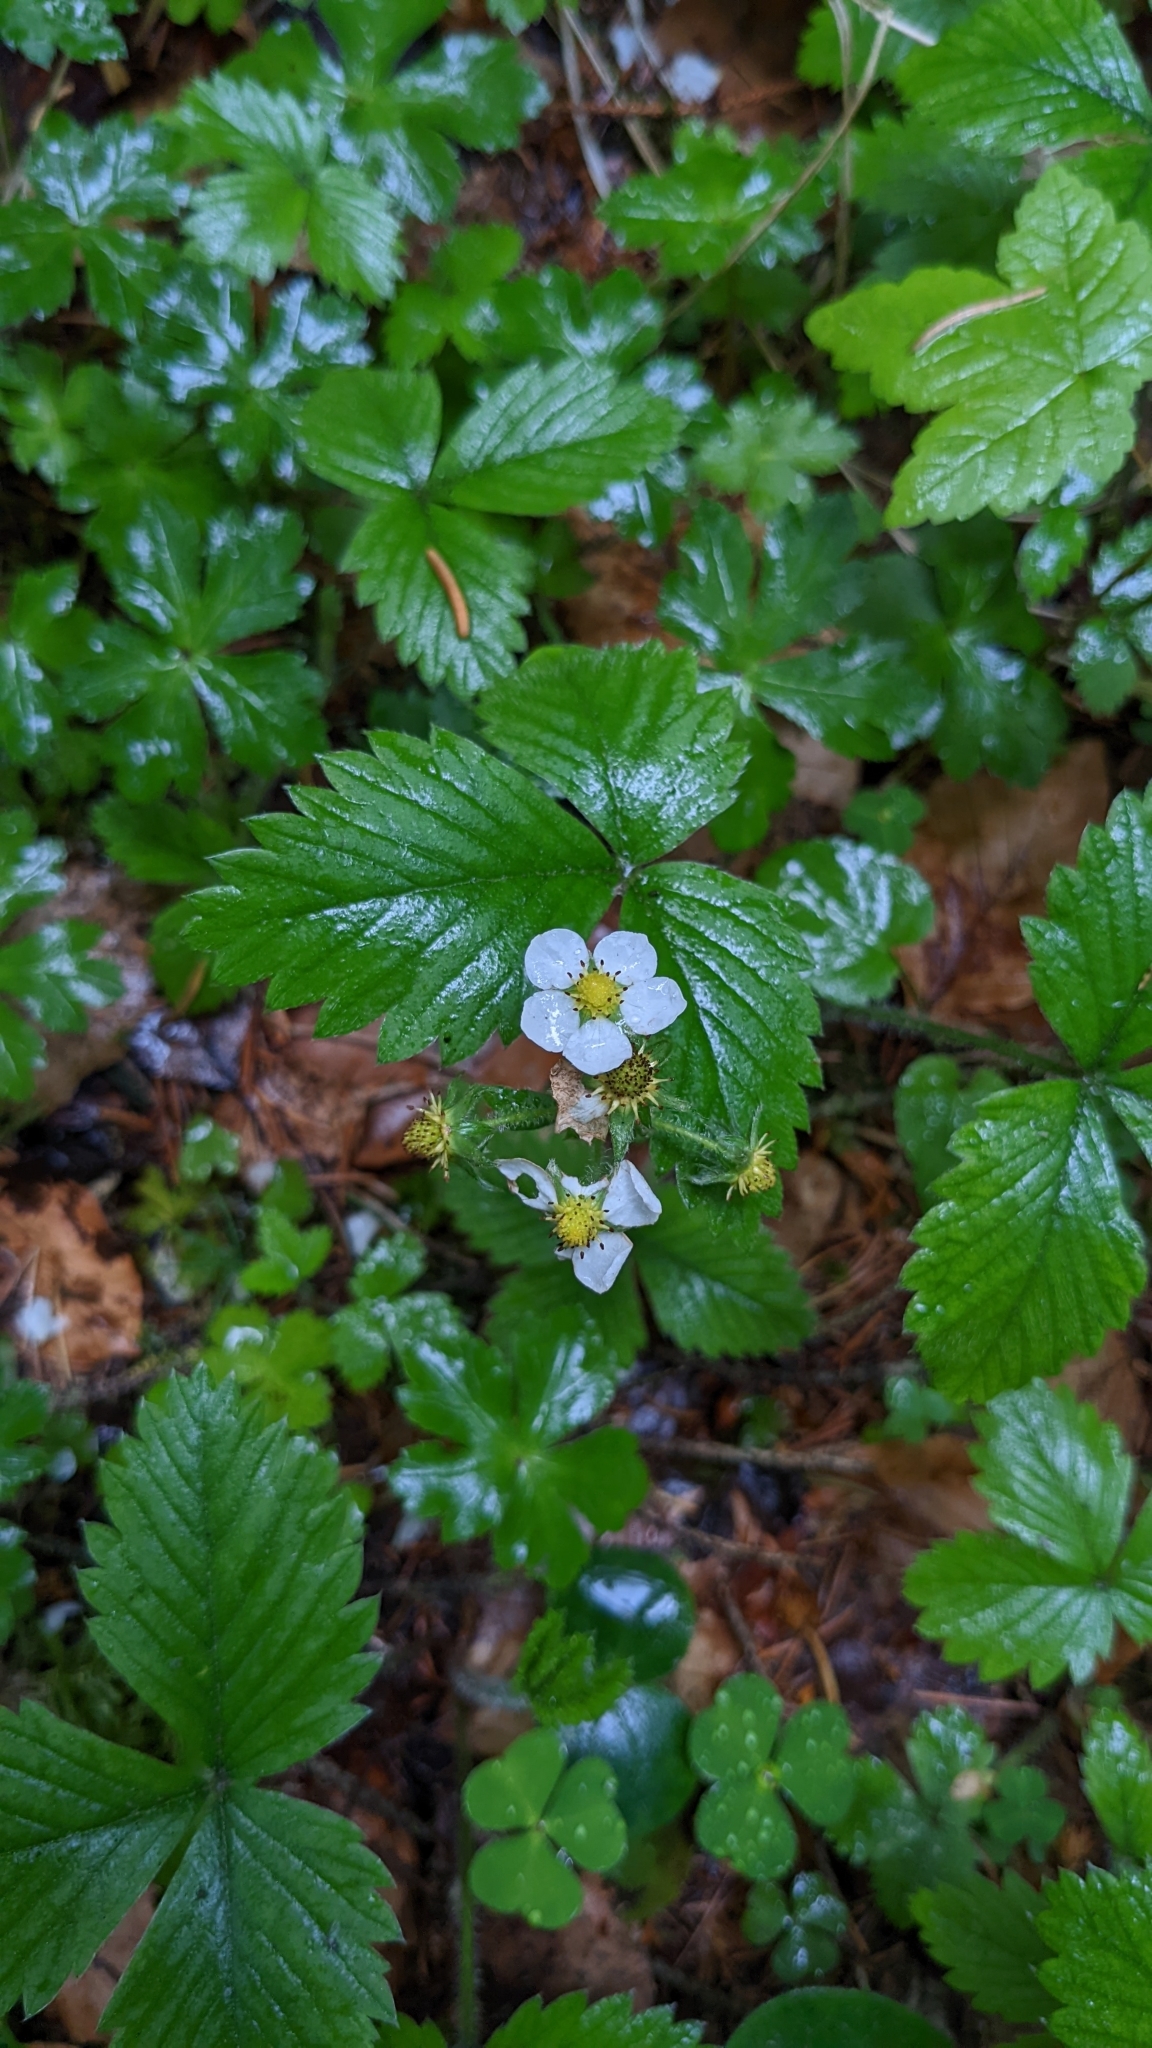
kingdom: Plantae
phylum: Tracheophyta
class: Magnoliopsida
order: Rosales
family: Rosaceae
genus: Fragaria
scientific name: Fragaria vesca
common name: Wild strawberry
